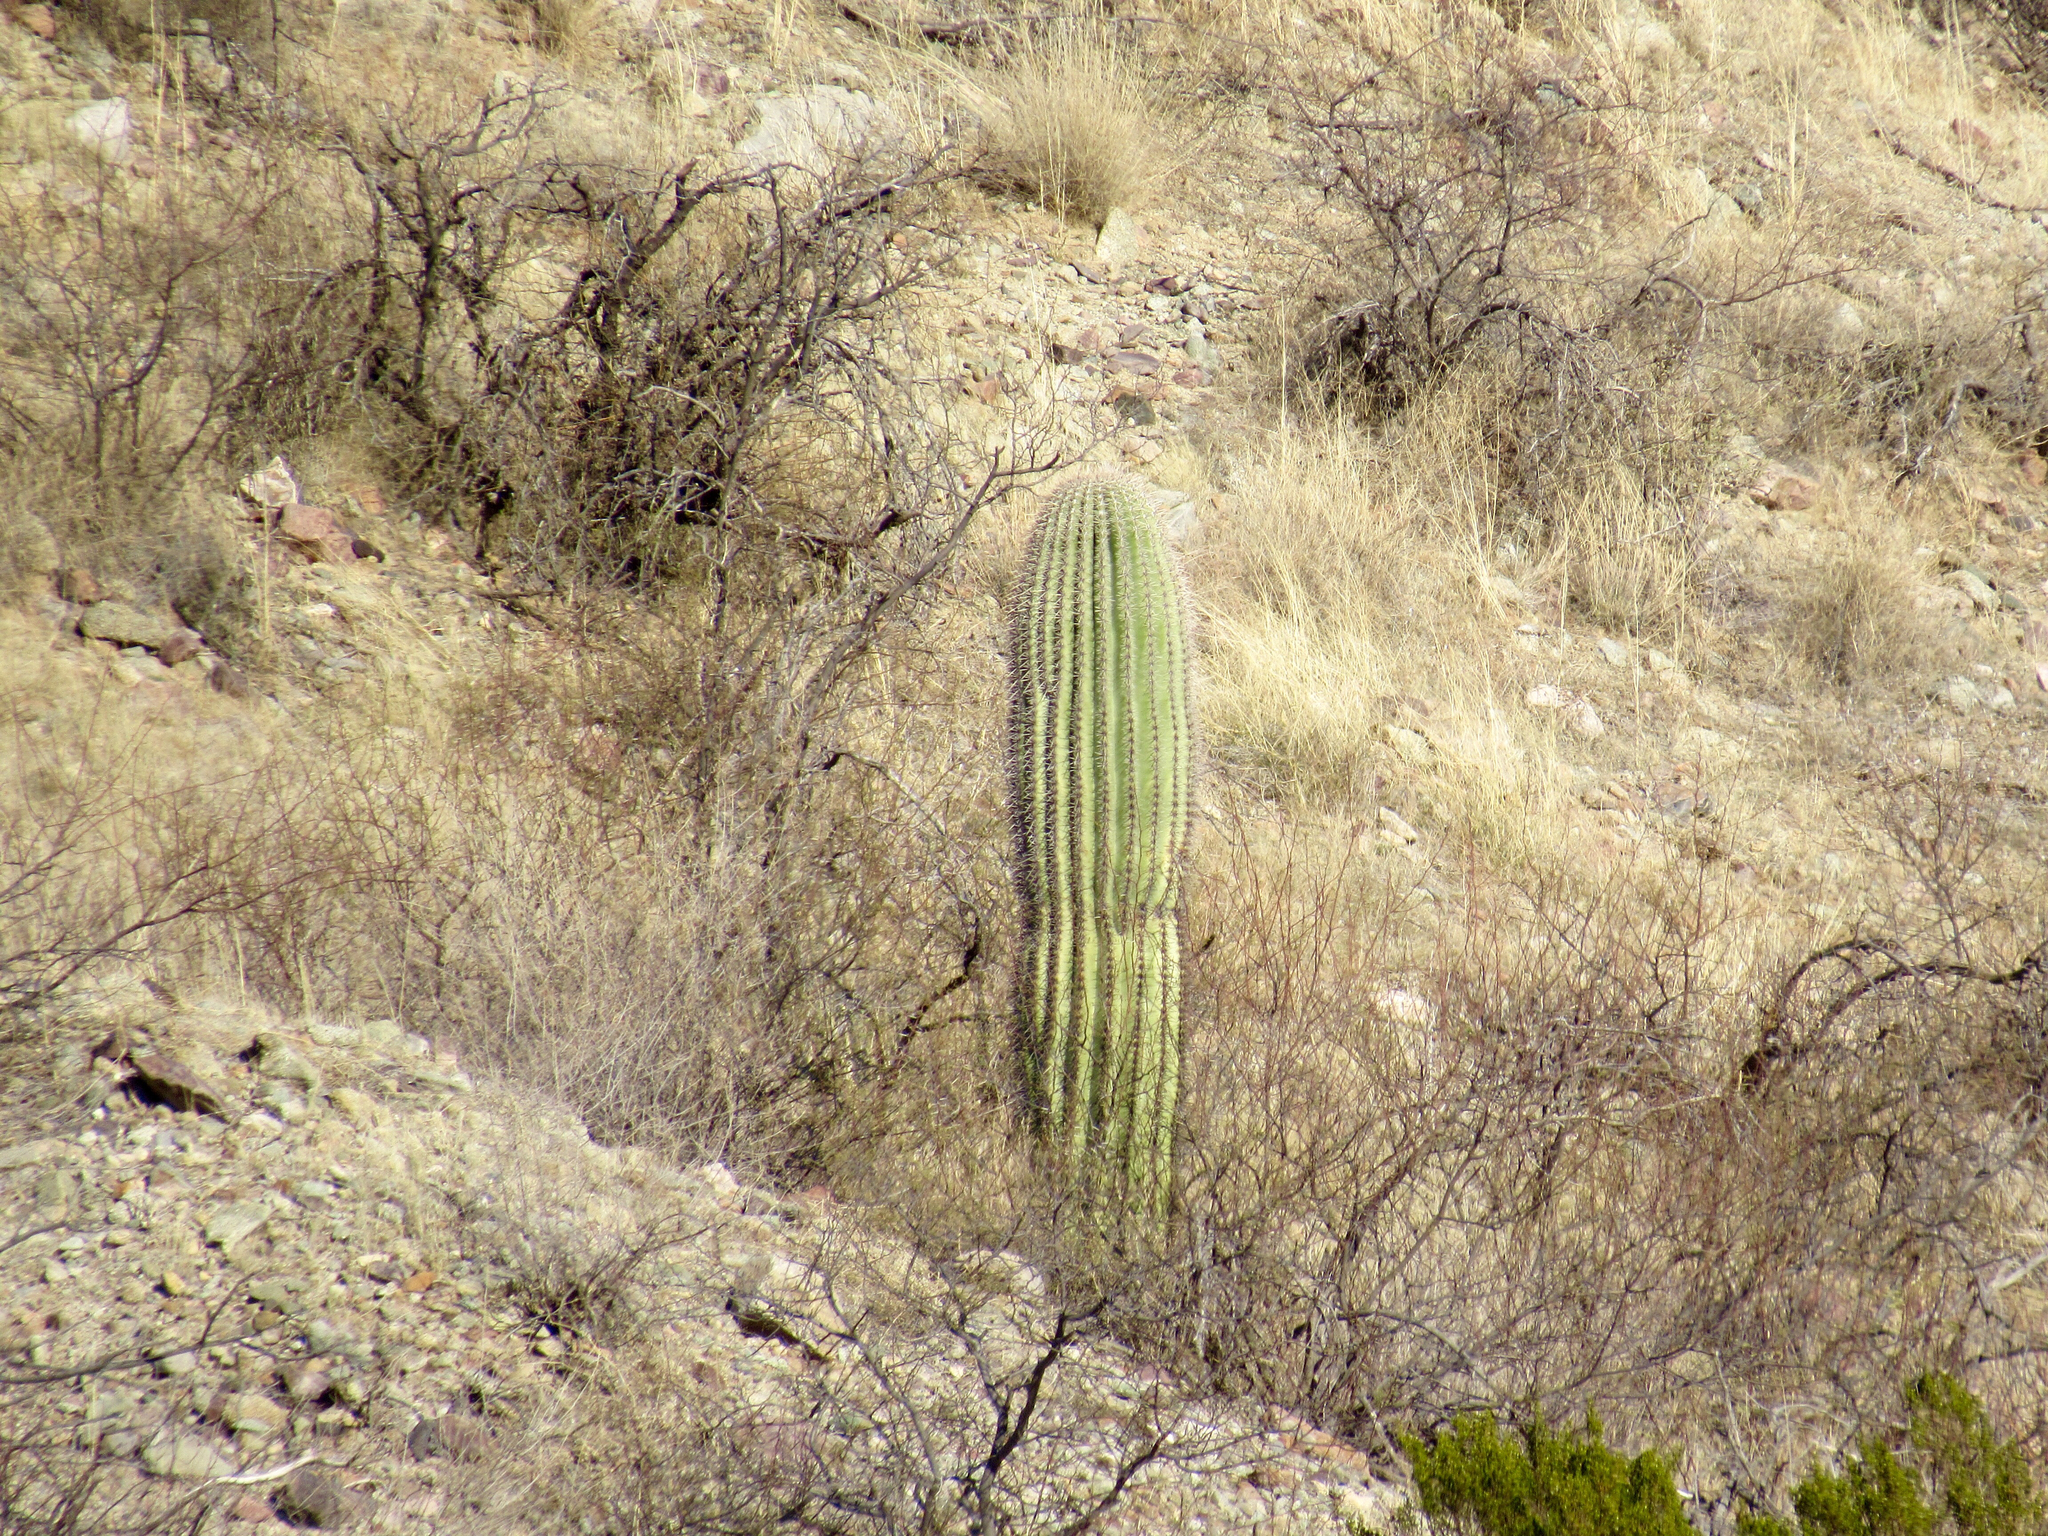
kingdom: Plantae
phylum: Tracheophyta
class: Magnoliopsida
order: Caryophyllales
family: Cactaceae
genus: Carnegiea
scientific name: Carnegiea gigantea
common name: Saguaro
